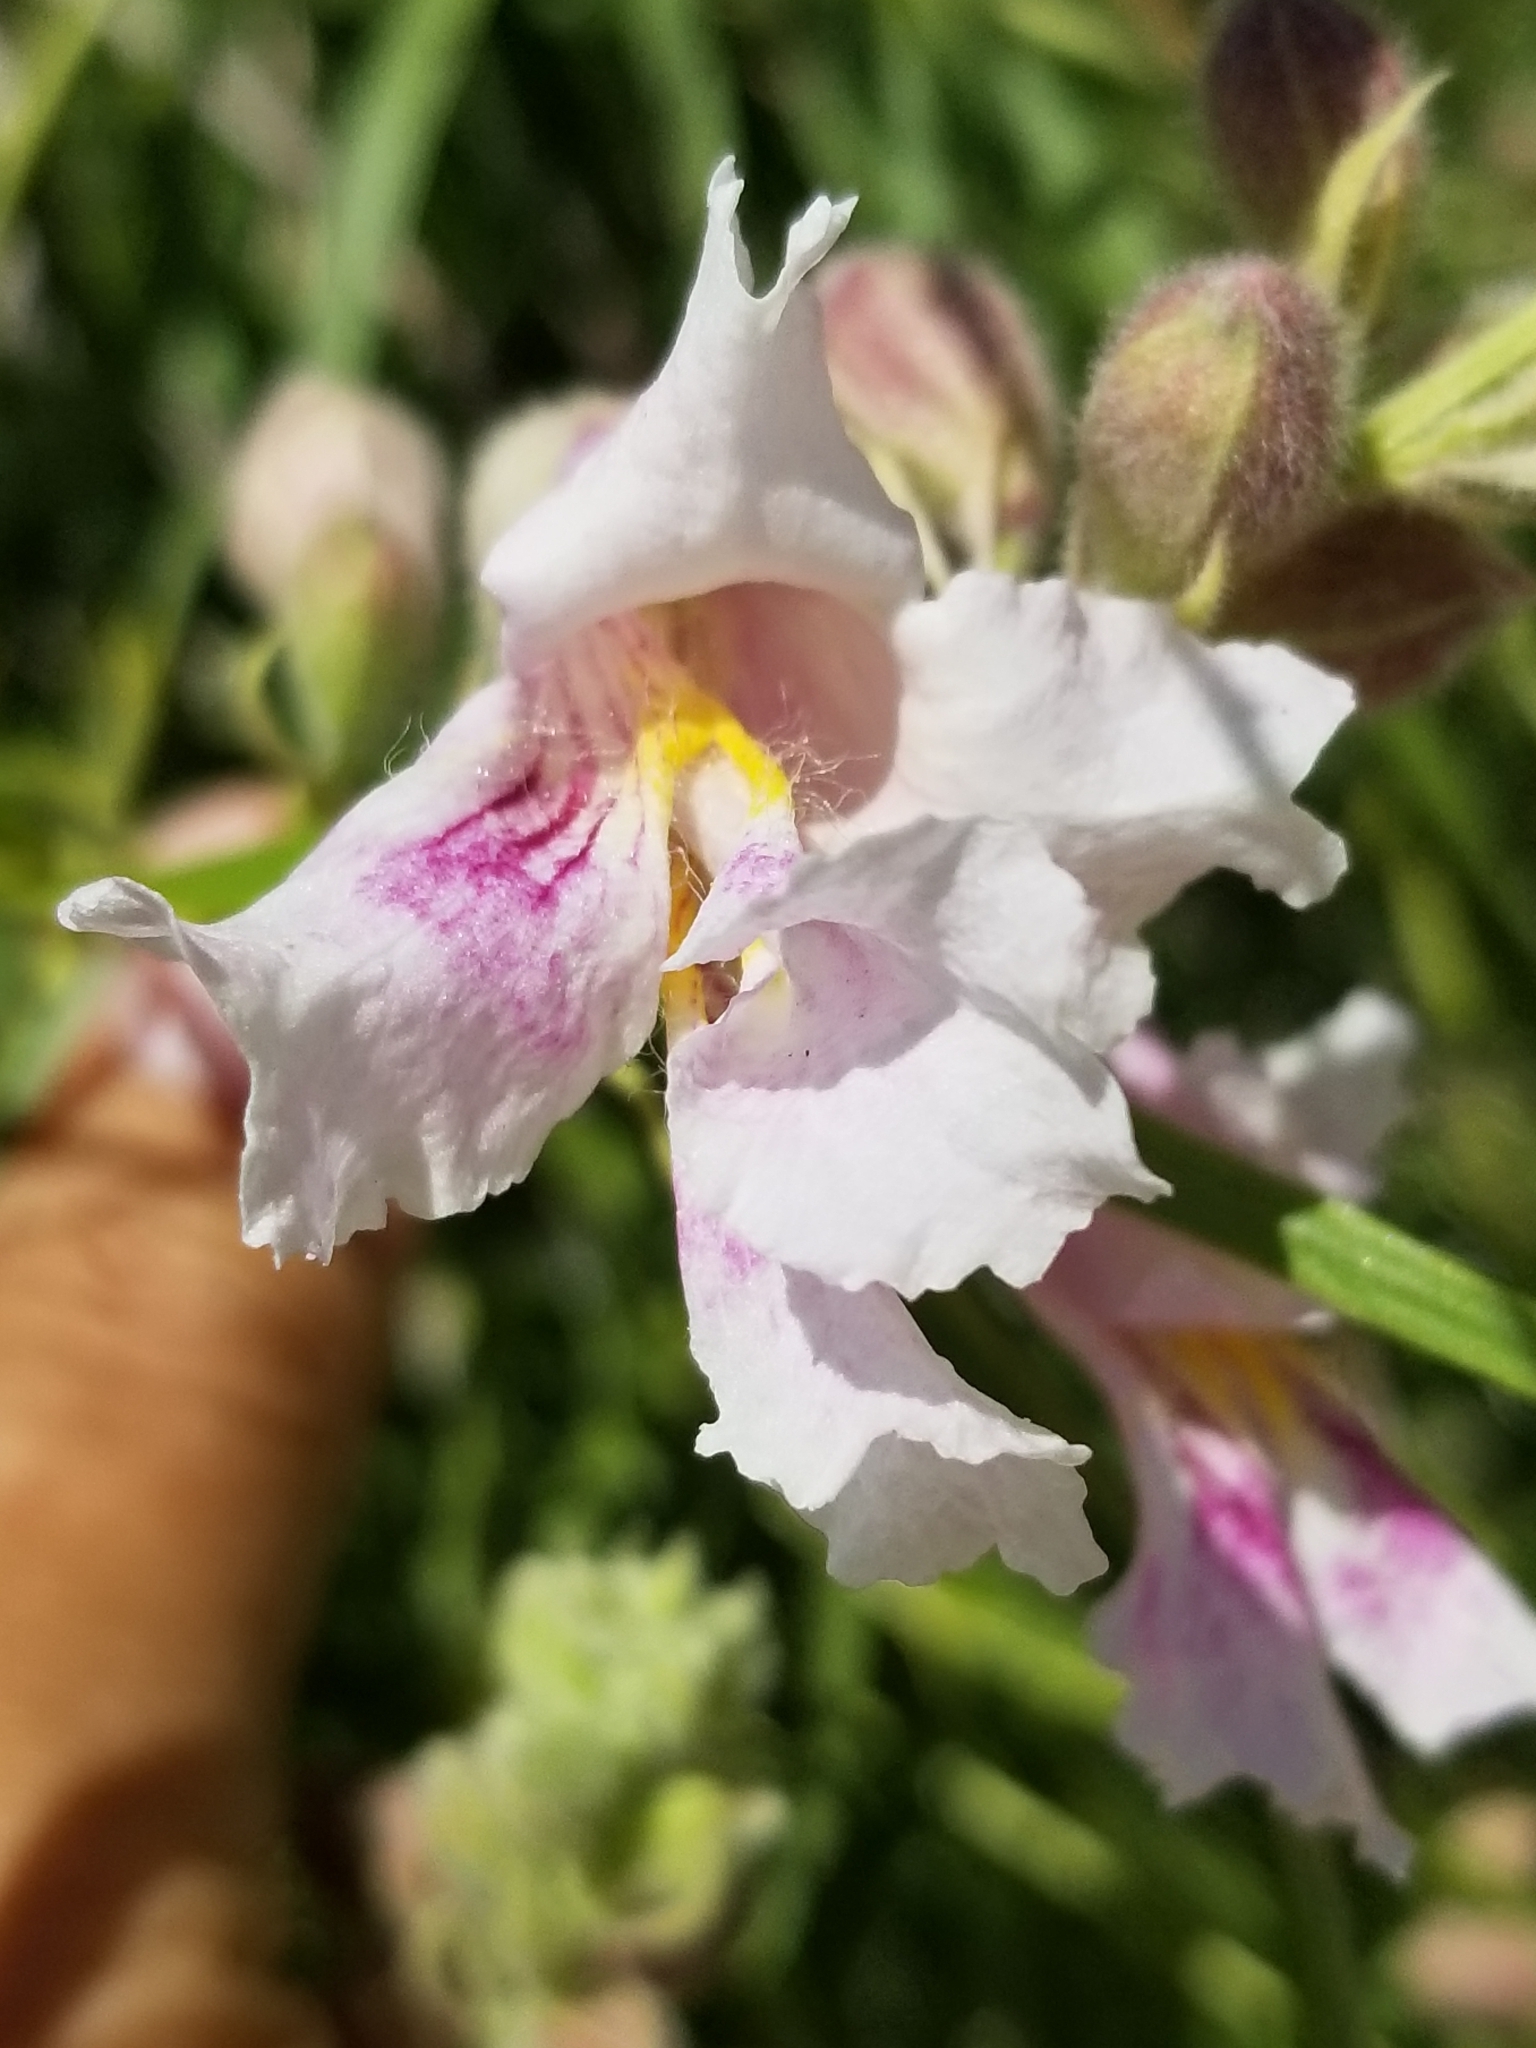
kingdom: Plantae
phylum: Tracheophyta
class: Magnoliopsida
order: Lamiales
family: Bignoniaceae
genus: Chilopsis
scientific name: Chilopsis linearis
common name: Desert-willow
